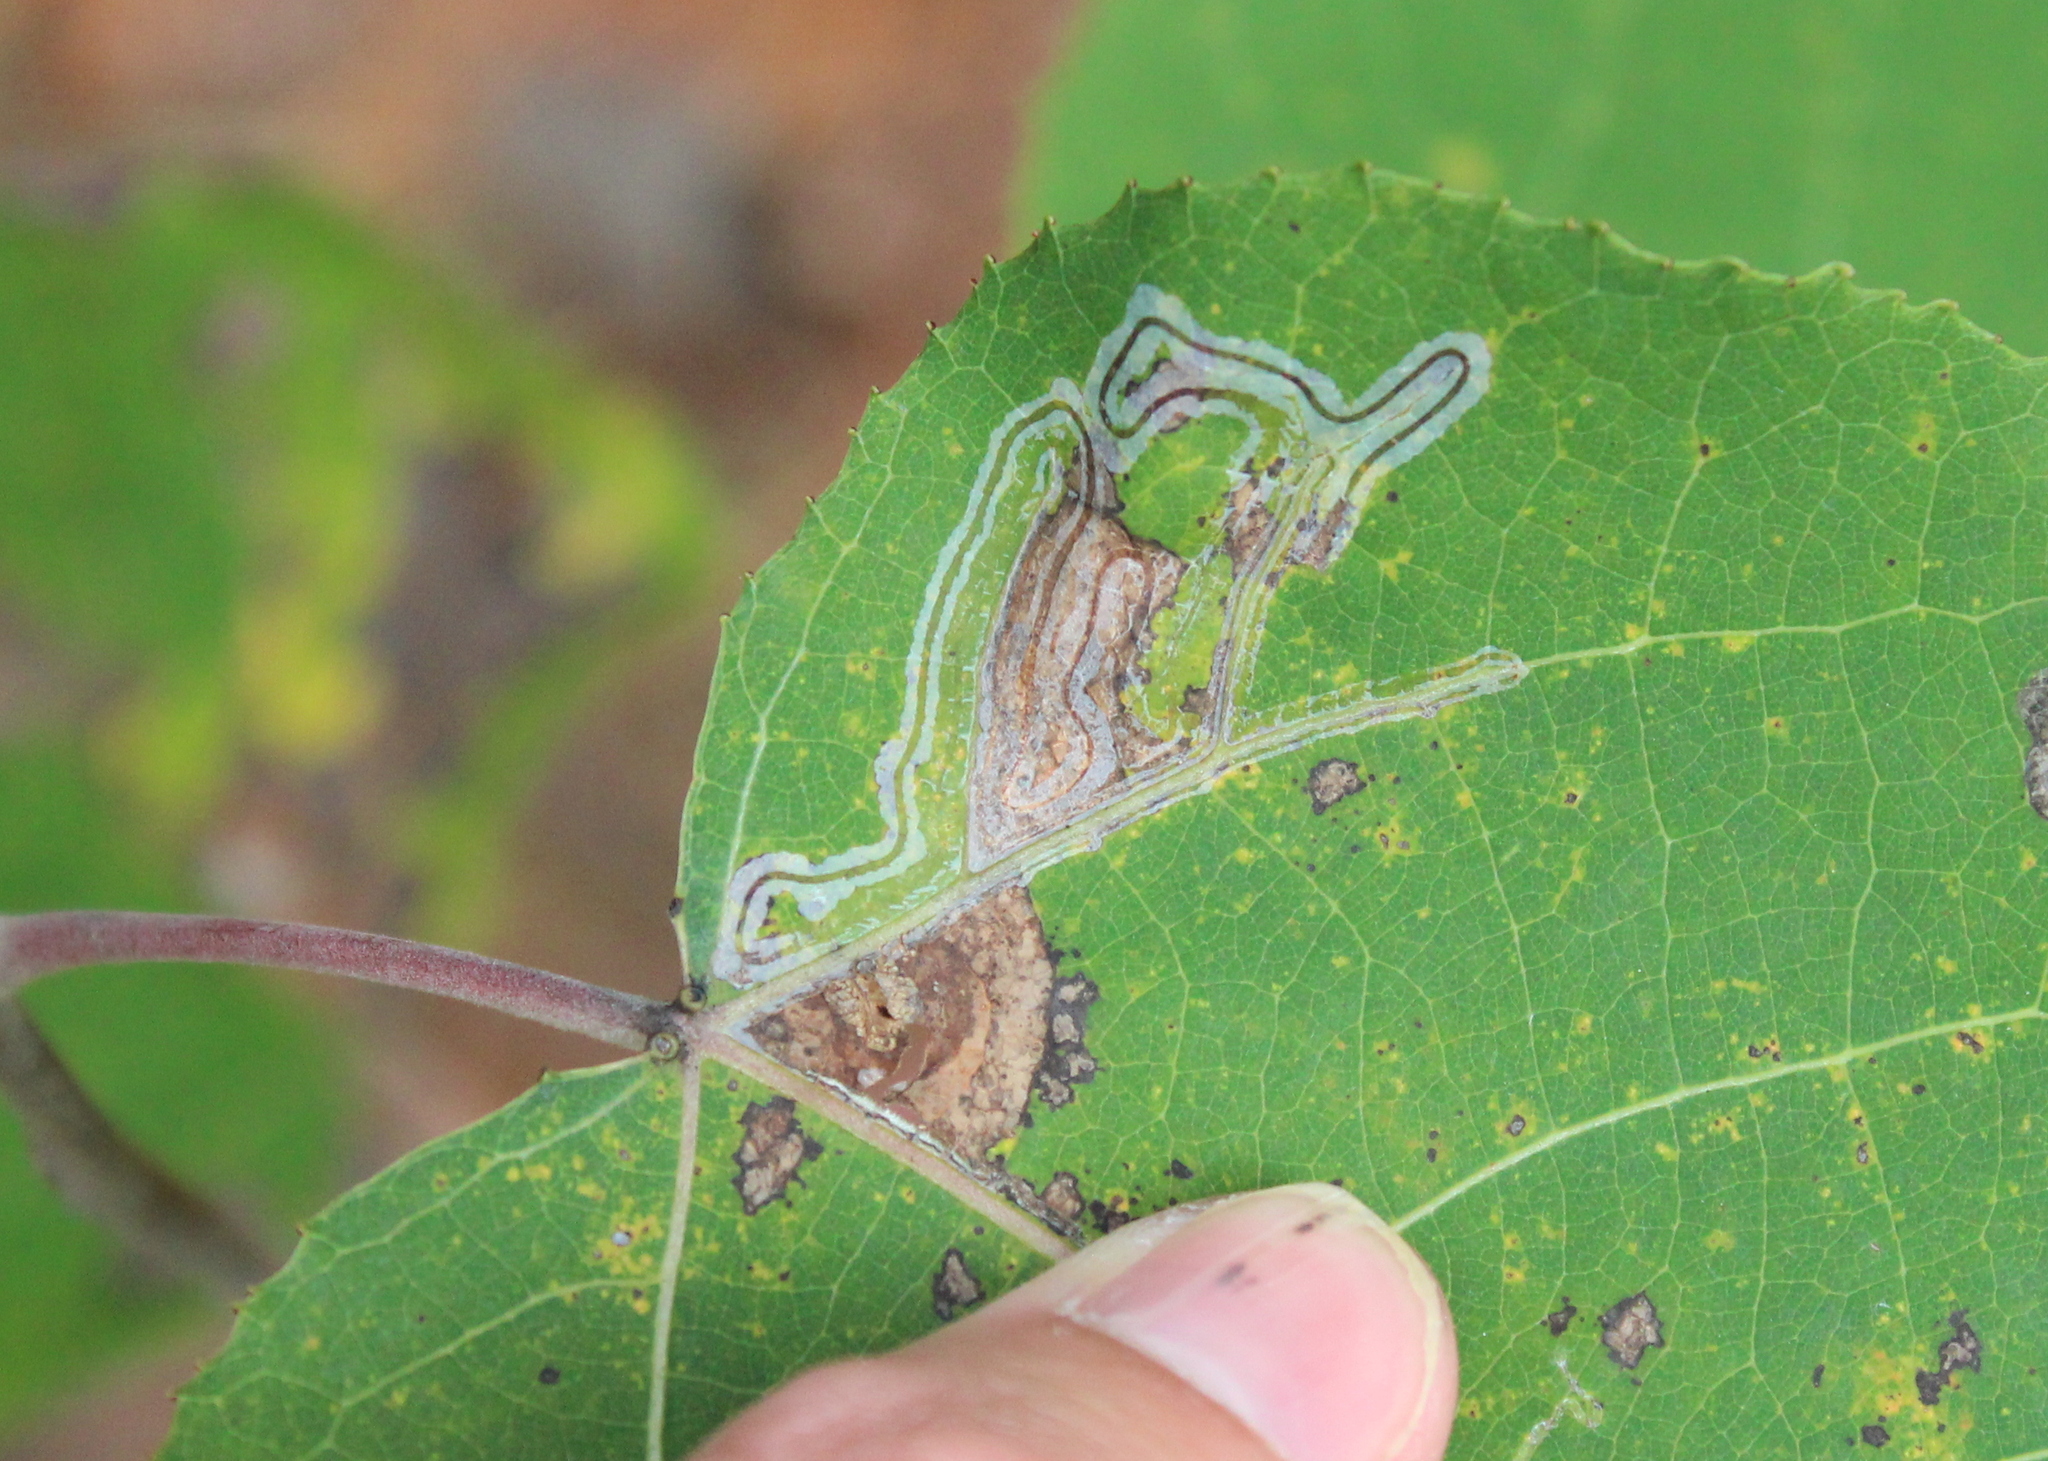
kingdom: Animalia
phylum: Arthropoda
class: Insecta
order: Lepidoptera
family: Gracillariidae
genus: Phyllocnistis
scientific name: Phyllocnistis populiella
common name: Aspen serpentine leafminer moth
